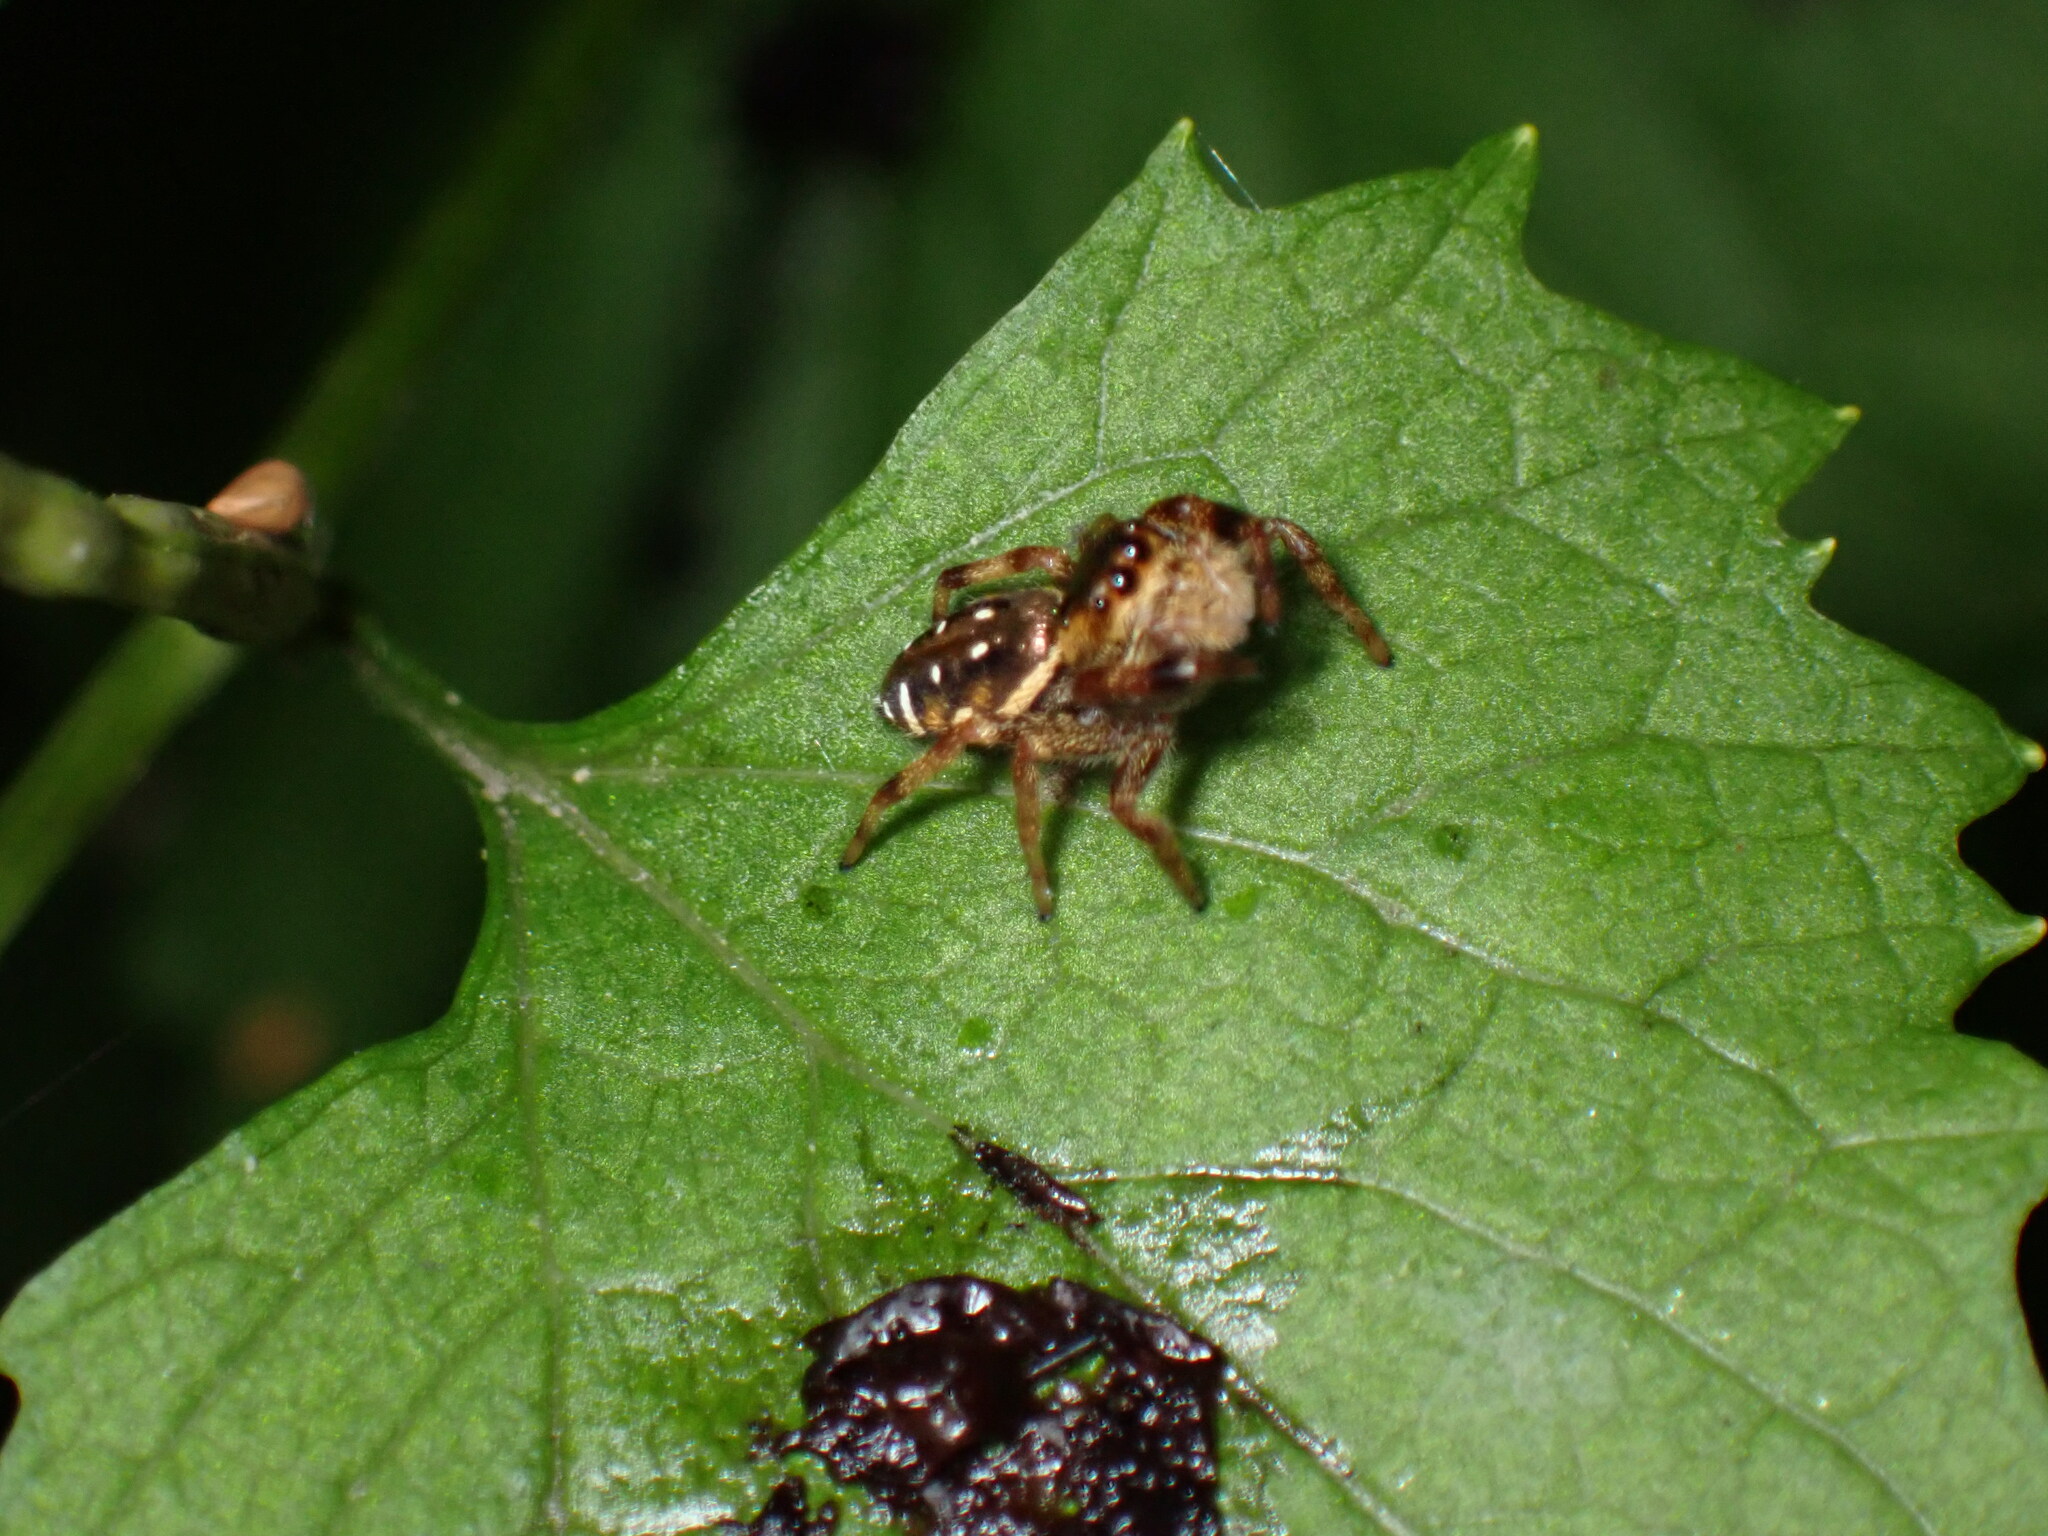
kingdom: Animalia
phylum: Arthropoda
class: Arachnida
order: Araneae
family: Salticidae
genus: Paraphidippus
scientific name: Paraphidippus aurantius
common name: Jumping spiders
